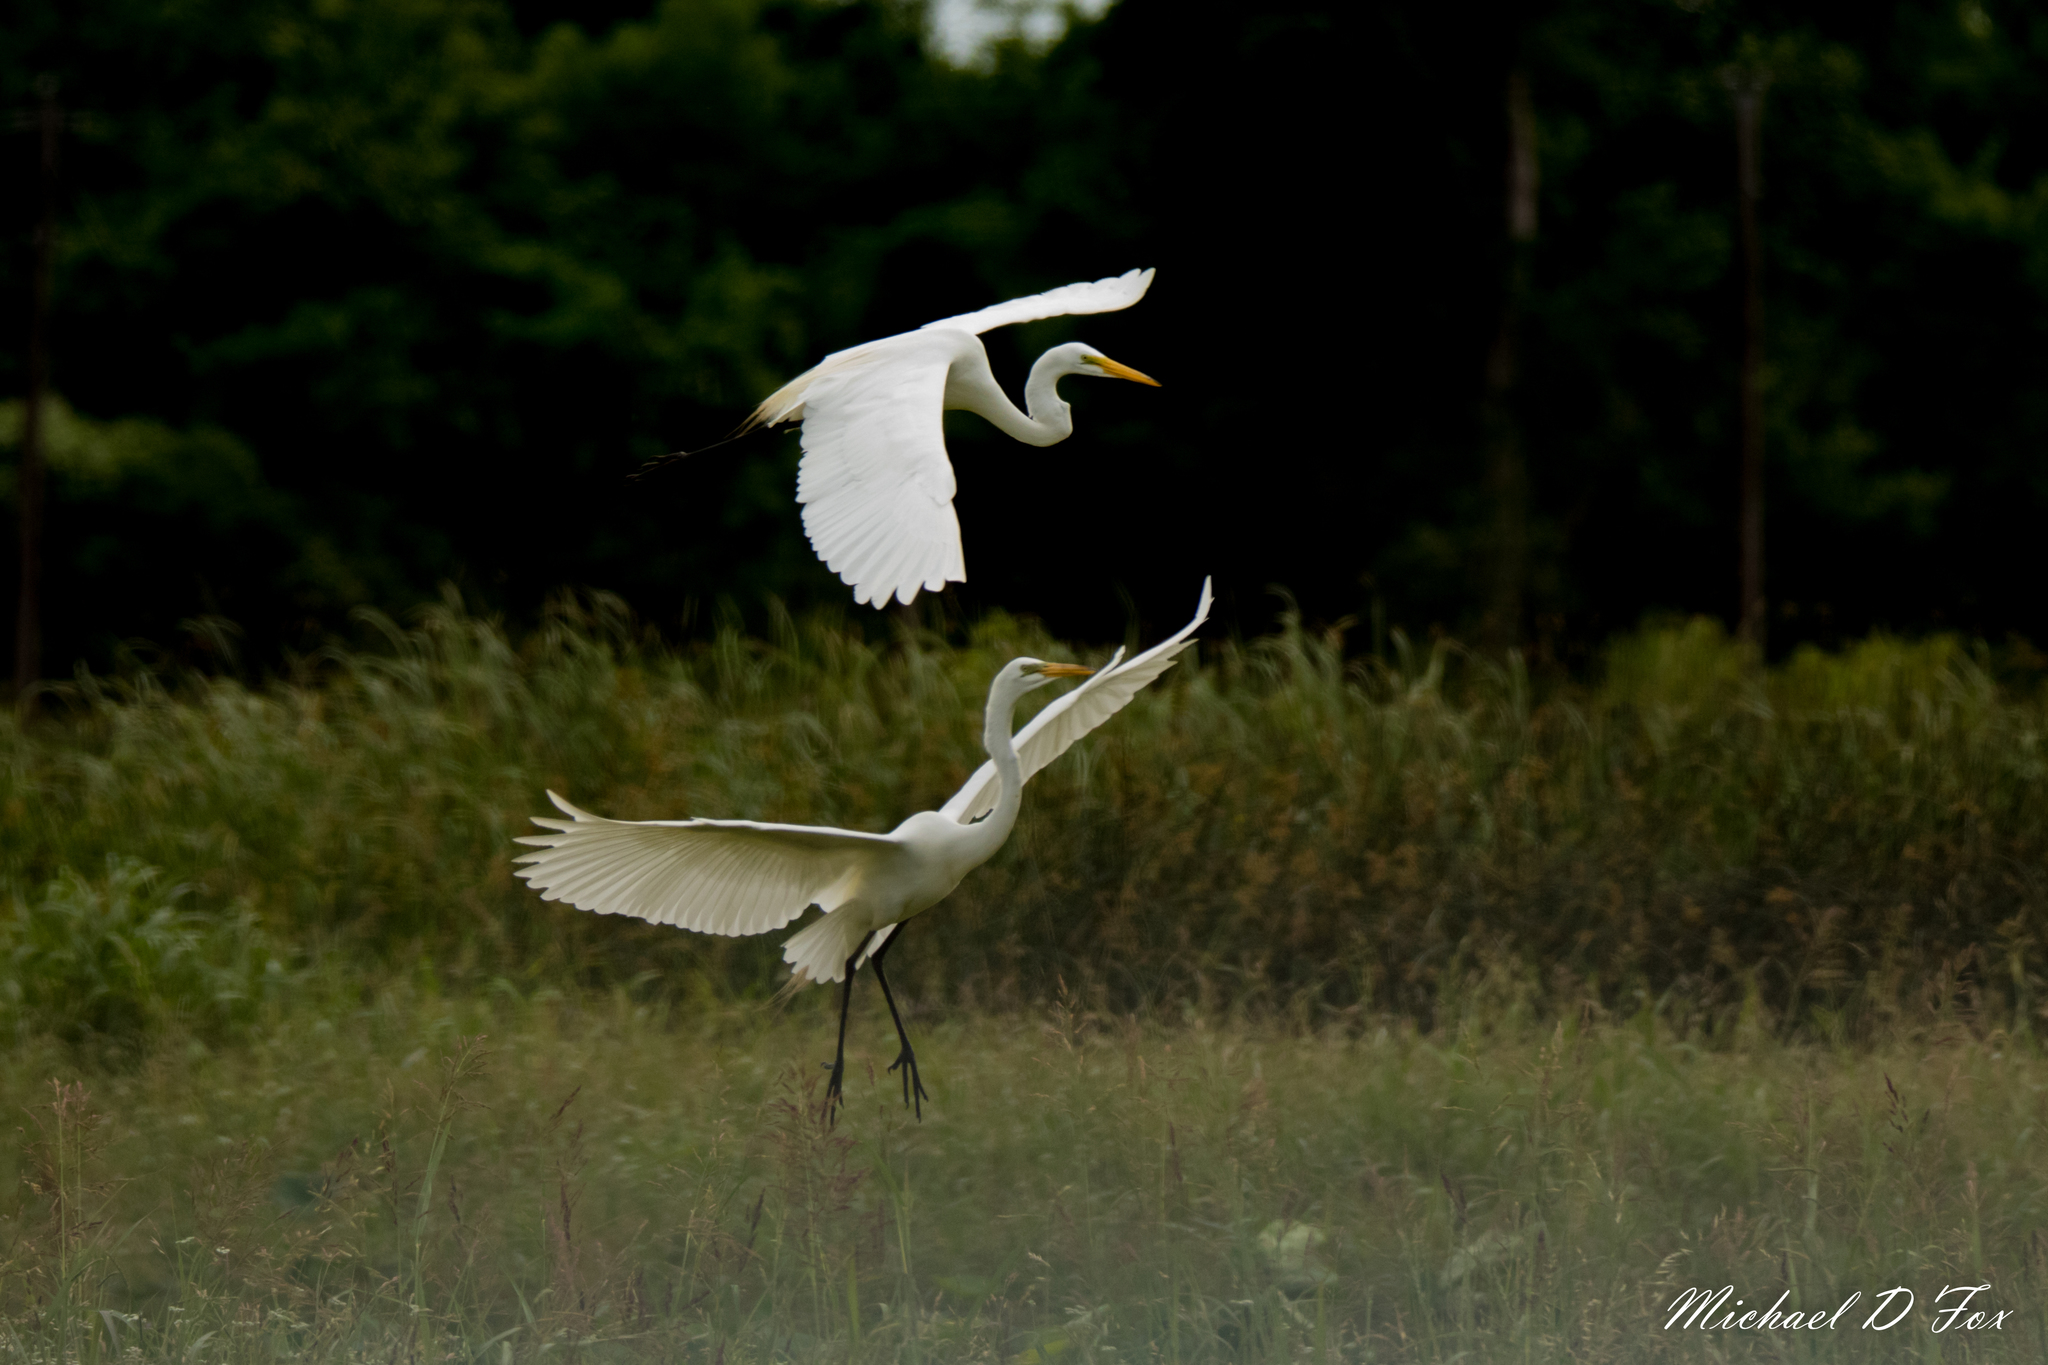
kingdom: Animalia
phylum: Chordata
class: Aves
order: Pelecaniformes
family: Ardeidae
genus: Ardea
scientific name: Ardea alba
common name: Great egret
